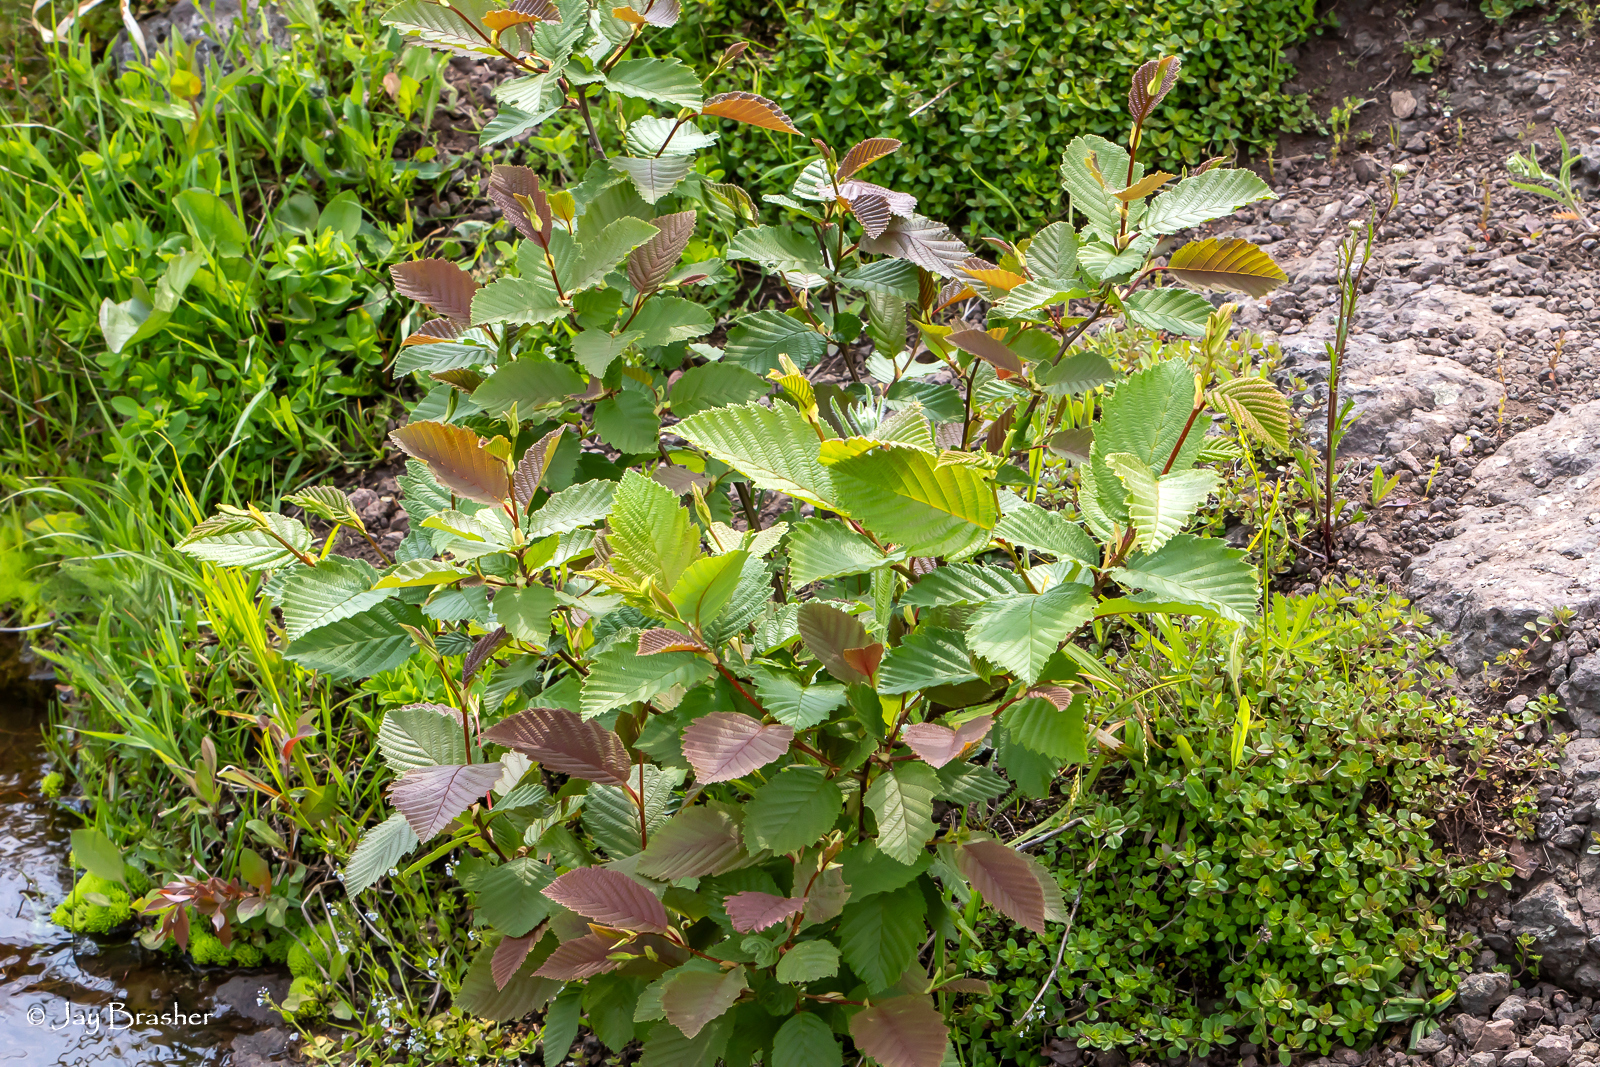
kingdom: Plantae
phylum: Tracheophyta
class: Magnoliopsida
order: Fagales
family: Betulaceae
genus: Alnus
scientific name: Alnus incana
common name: Grey alder
